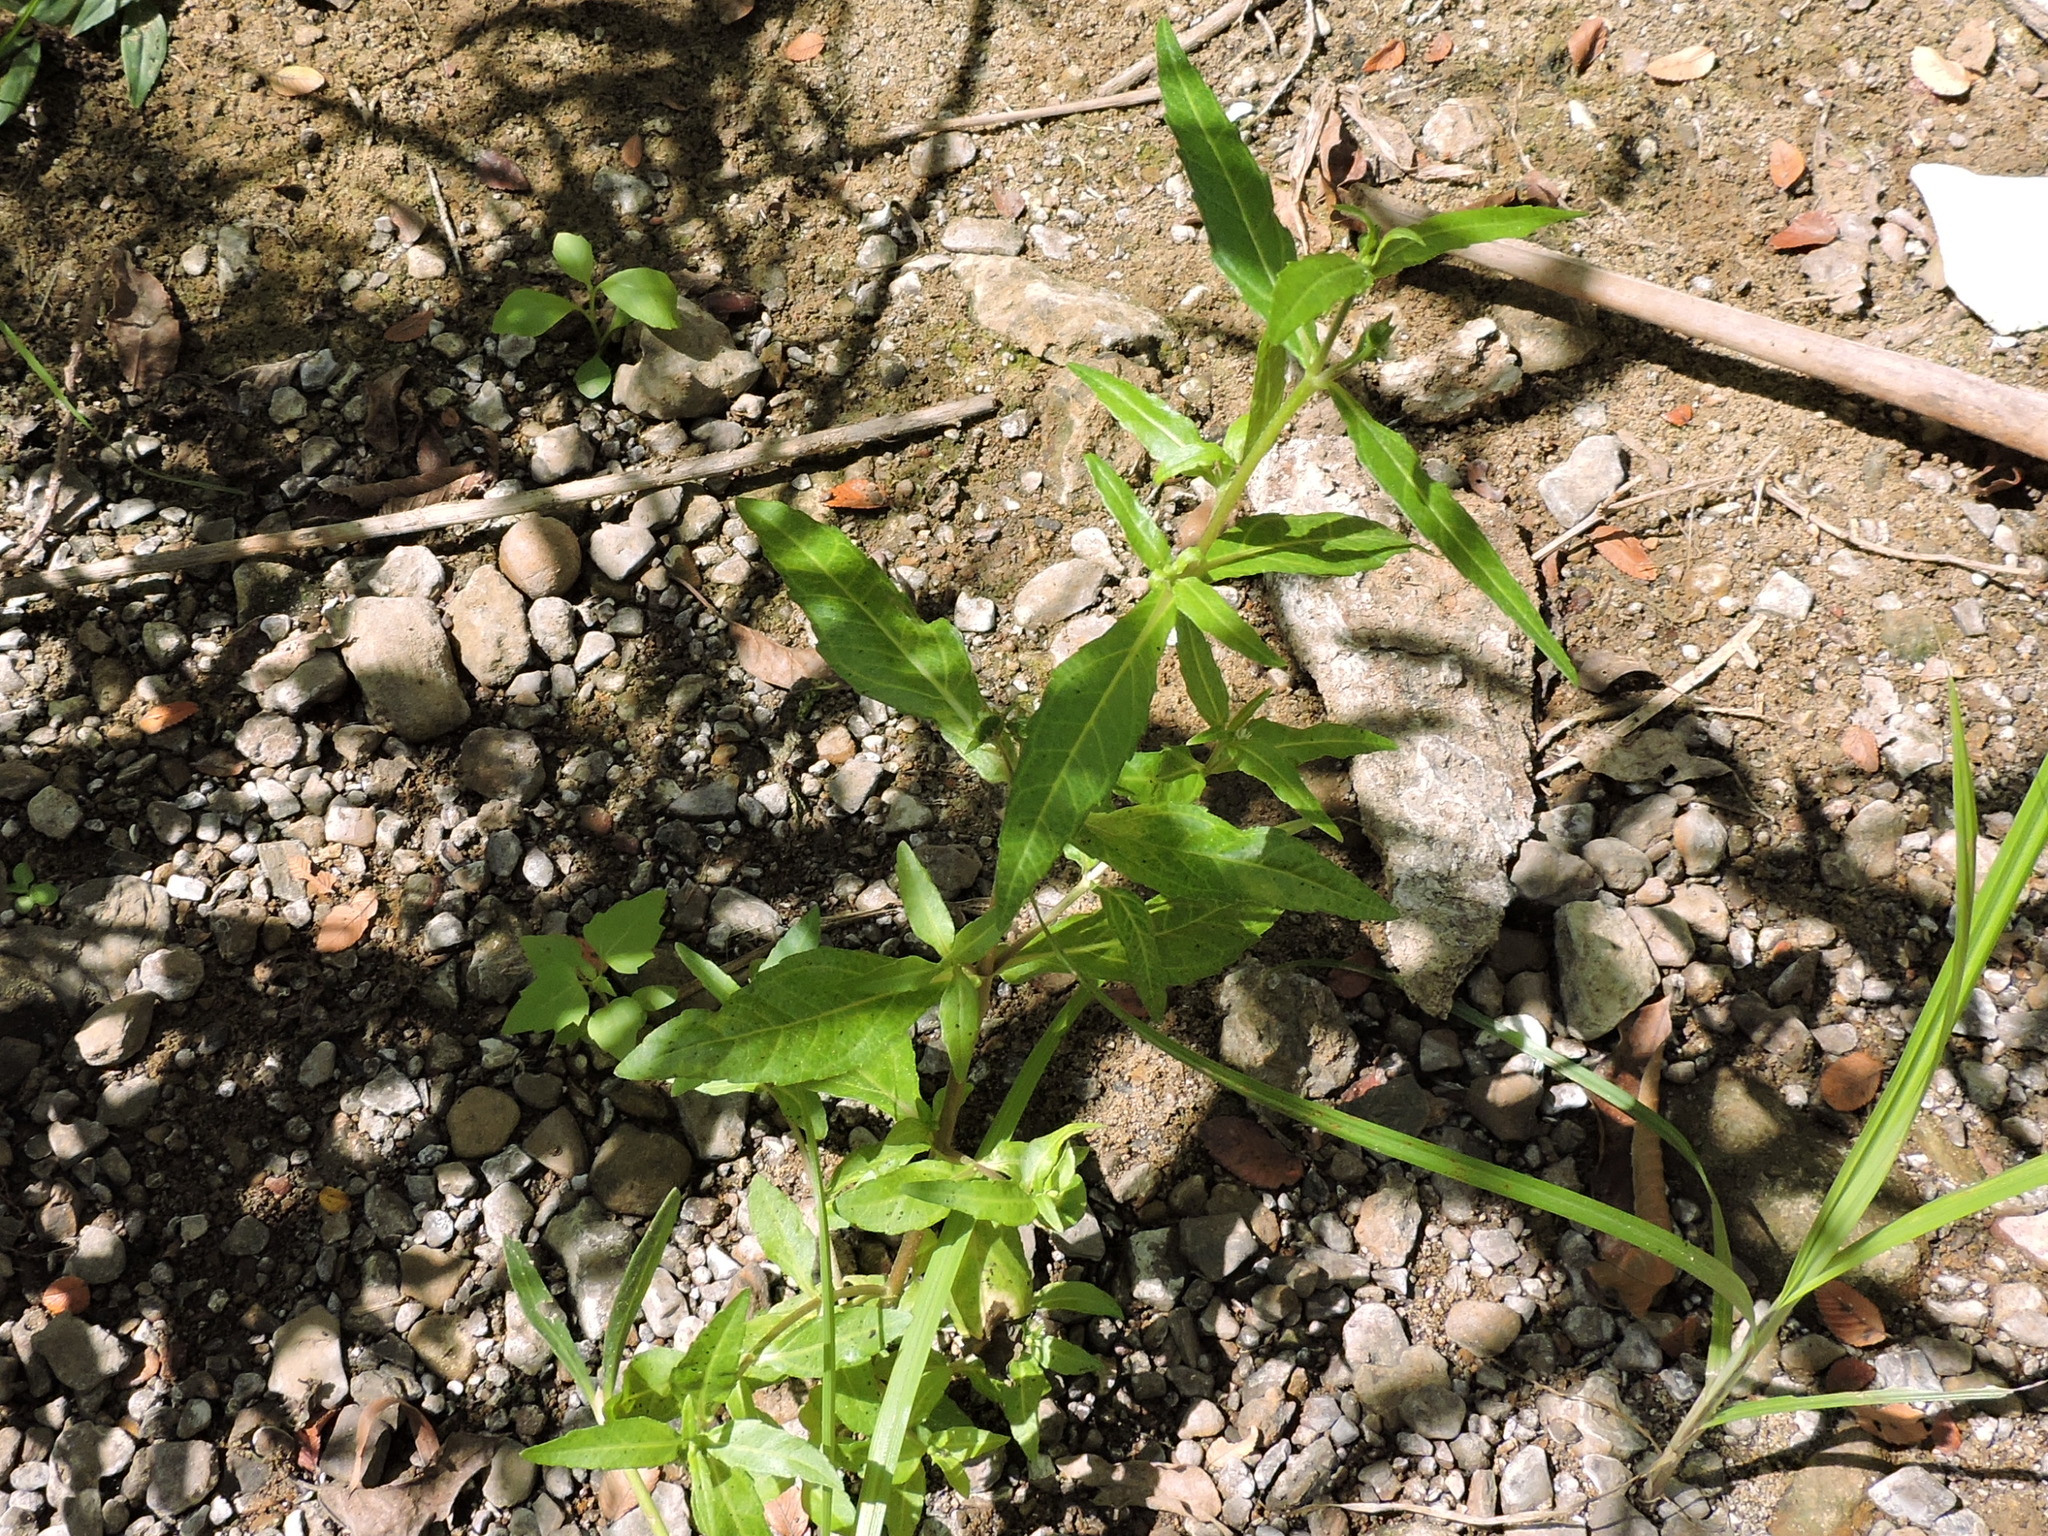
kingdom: Plantae
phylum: Tracheophyta
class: Magnoliopsida
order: Asterales
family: Asteraceae
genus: Eclipta
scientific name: Eclipta prostrata
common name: False daisy
